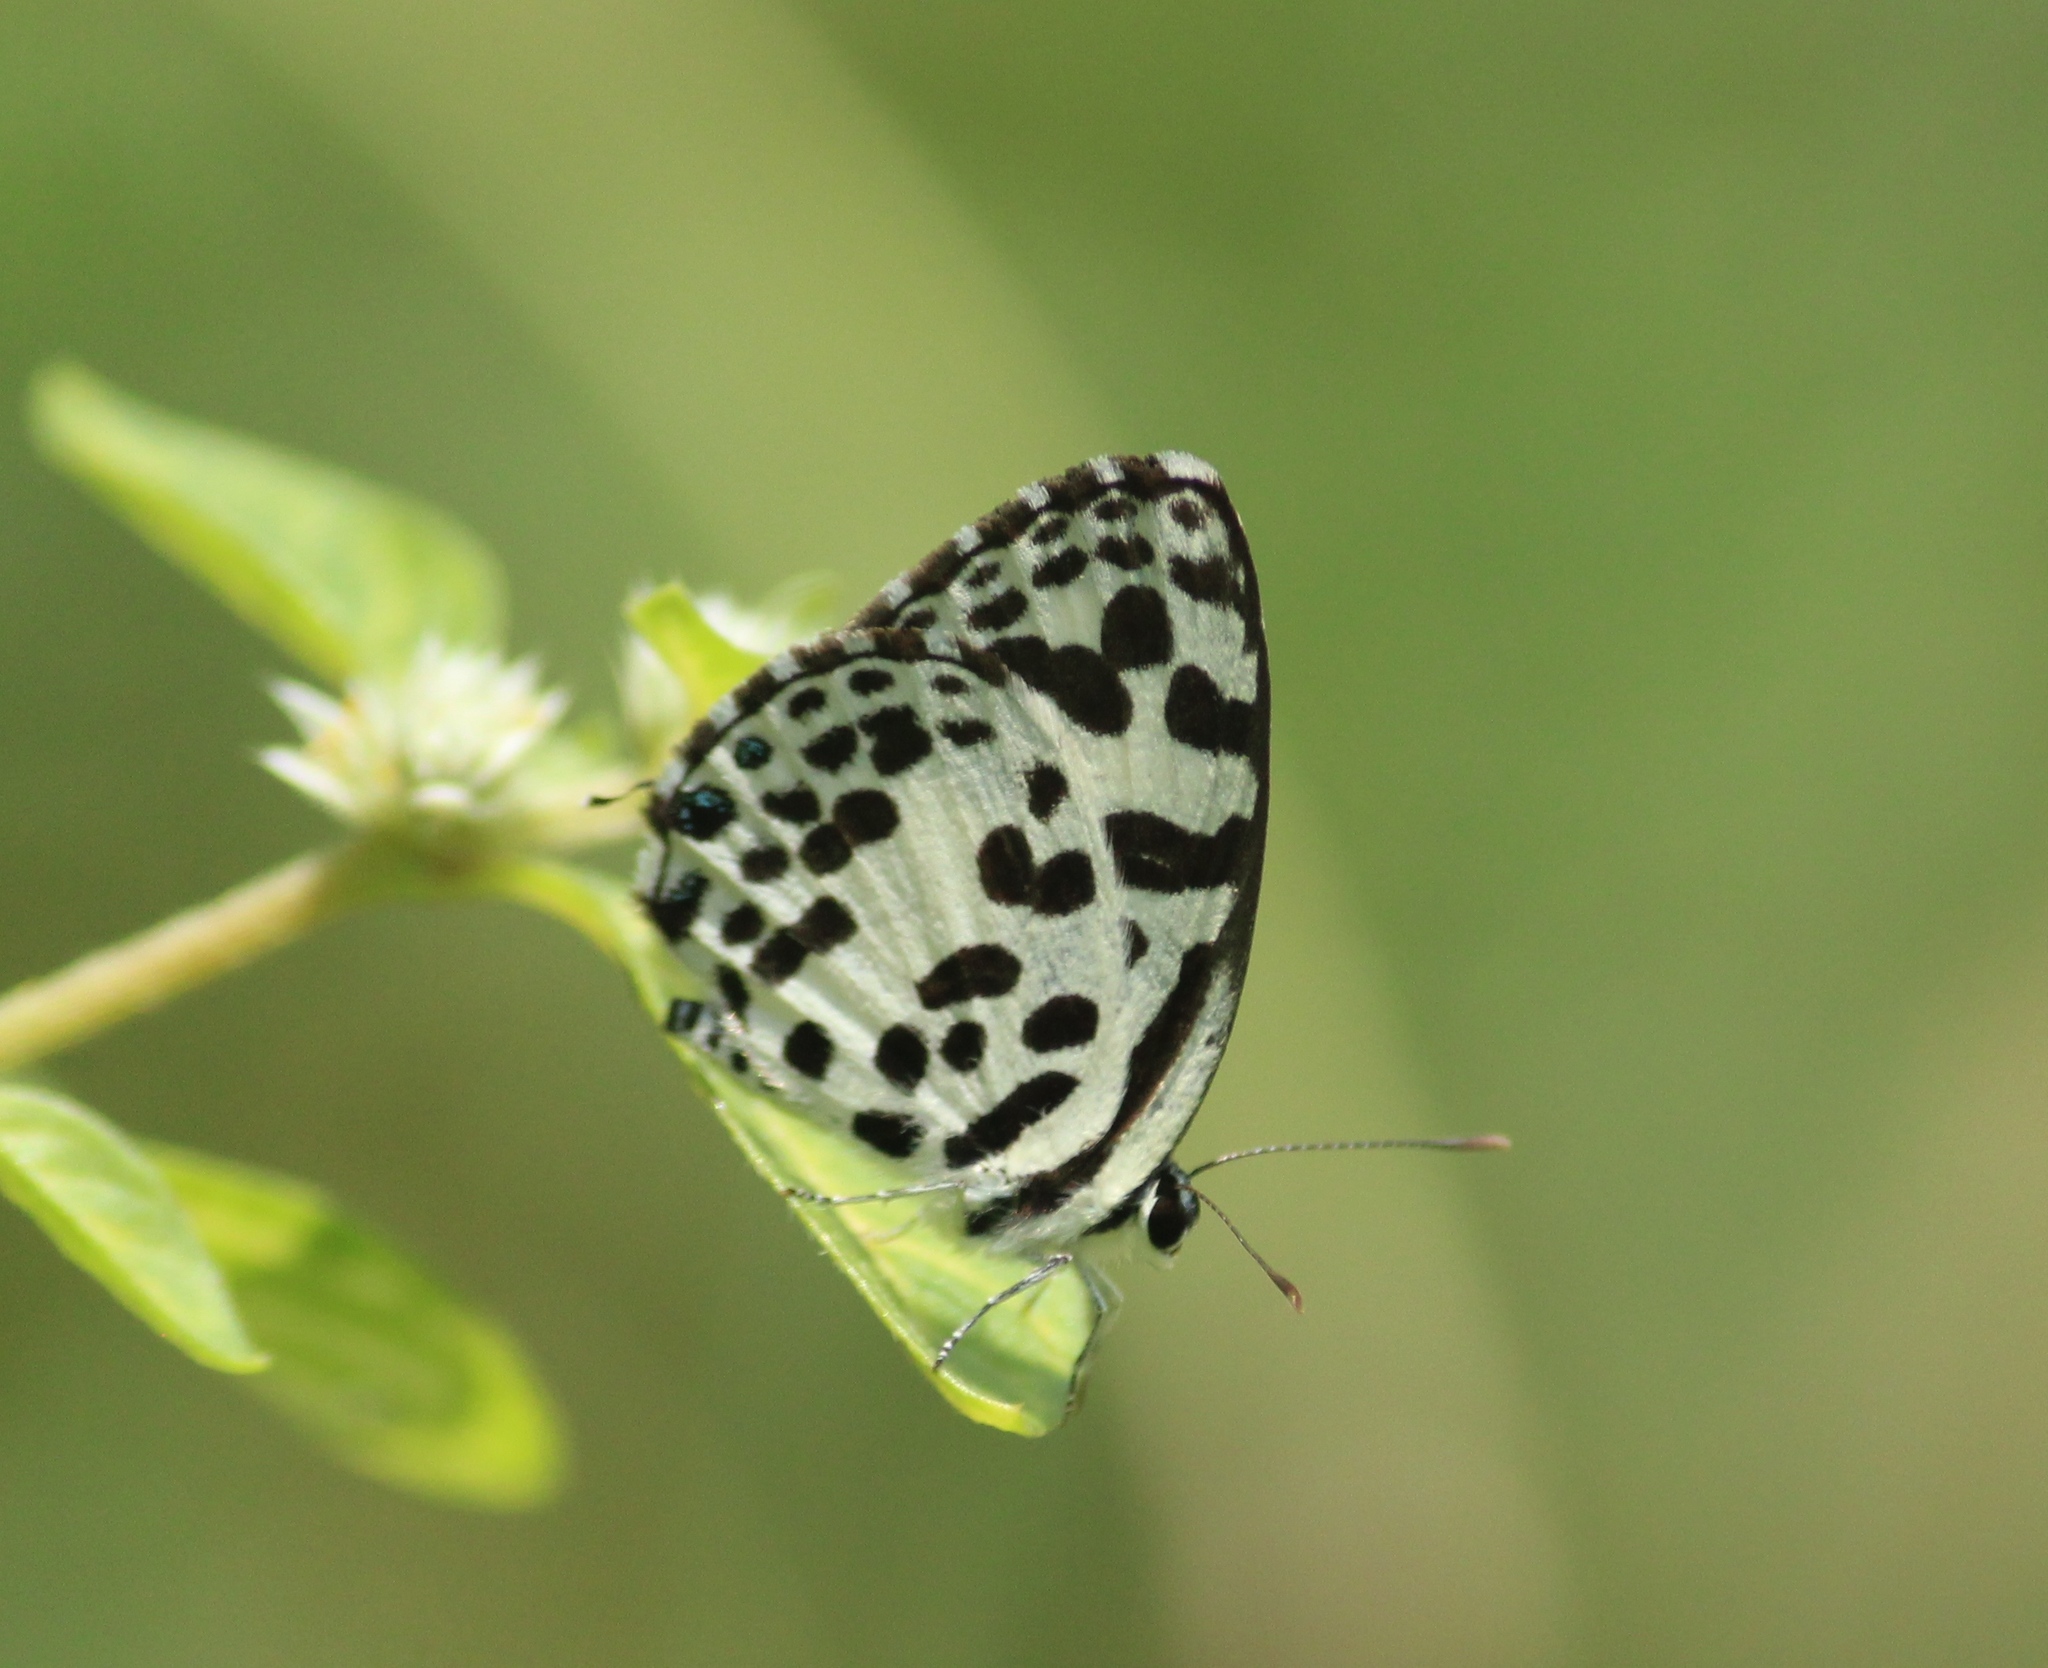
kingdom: Animalia
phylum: Arthropoda
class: Insecta
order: Lepidoptera
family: Lycaenidae
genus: Castalius
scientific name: Castalius rosimon
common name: Common pierrot
